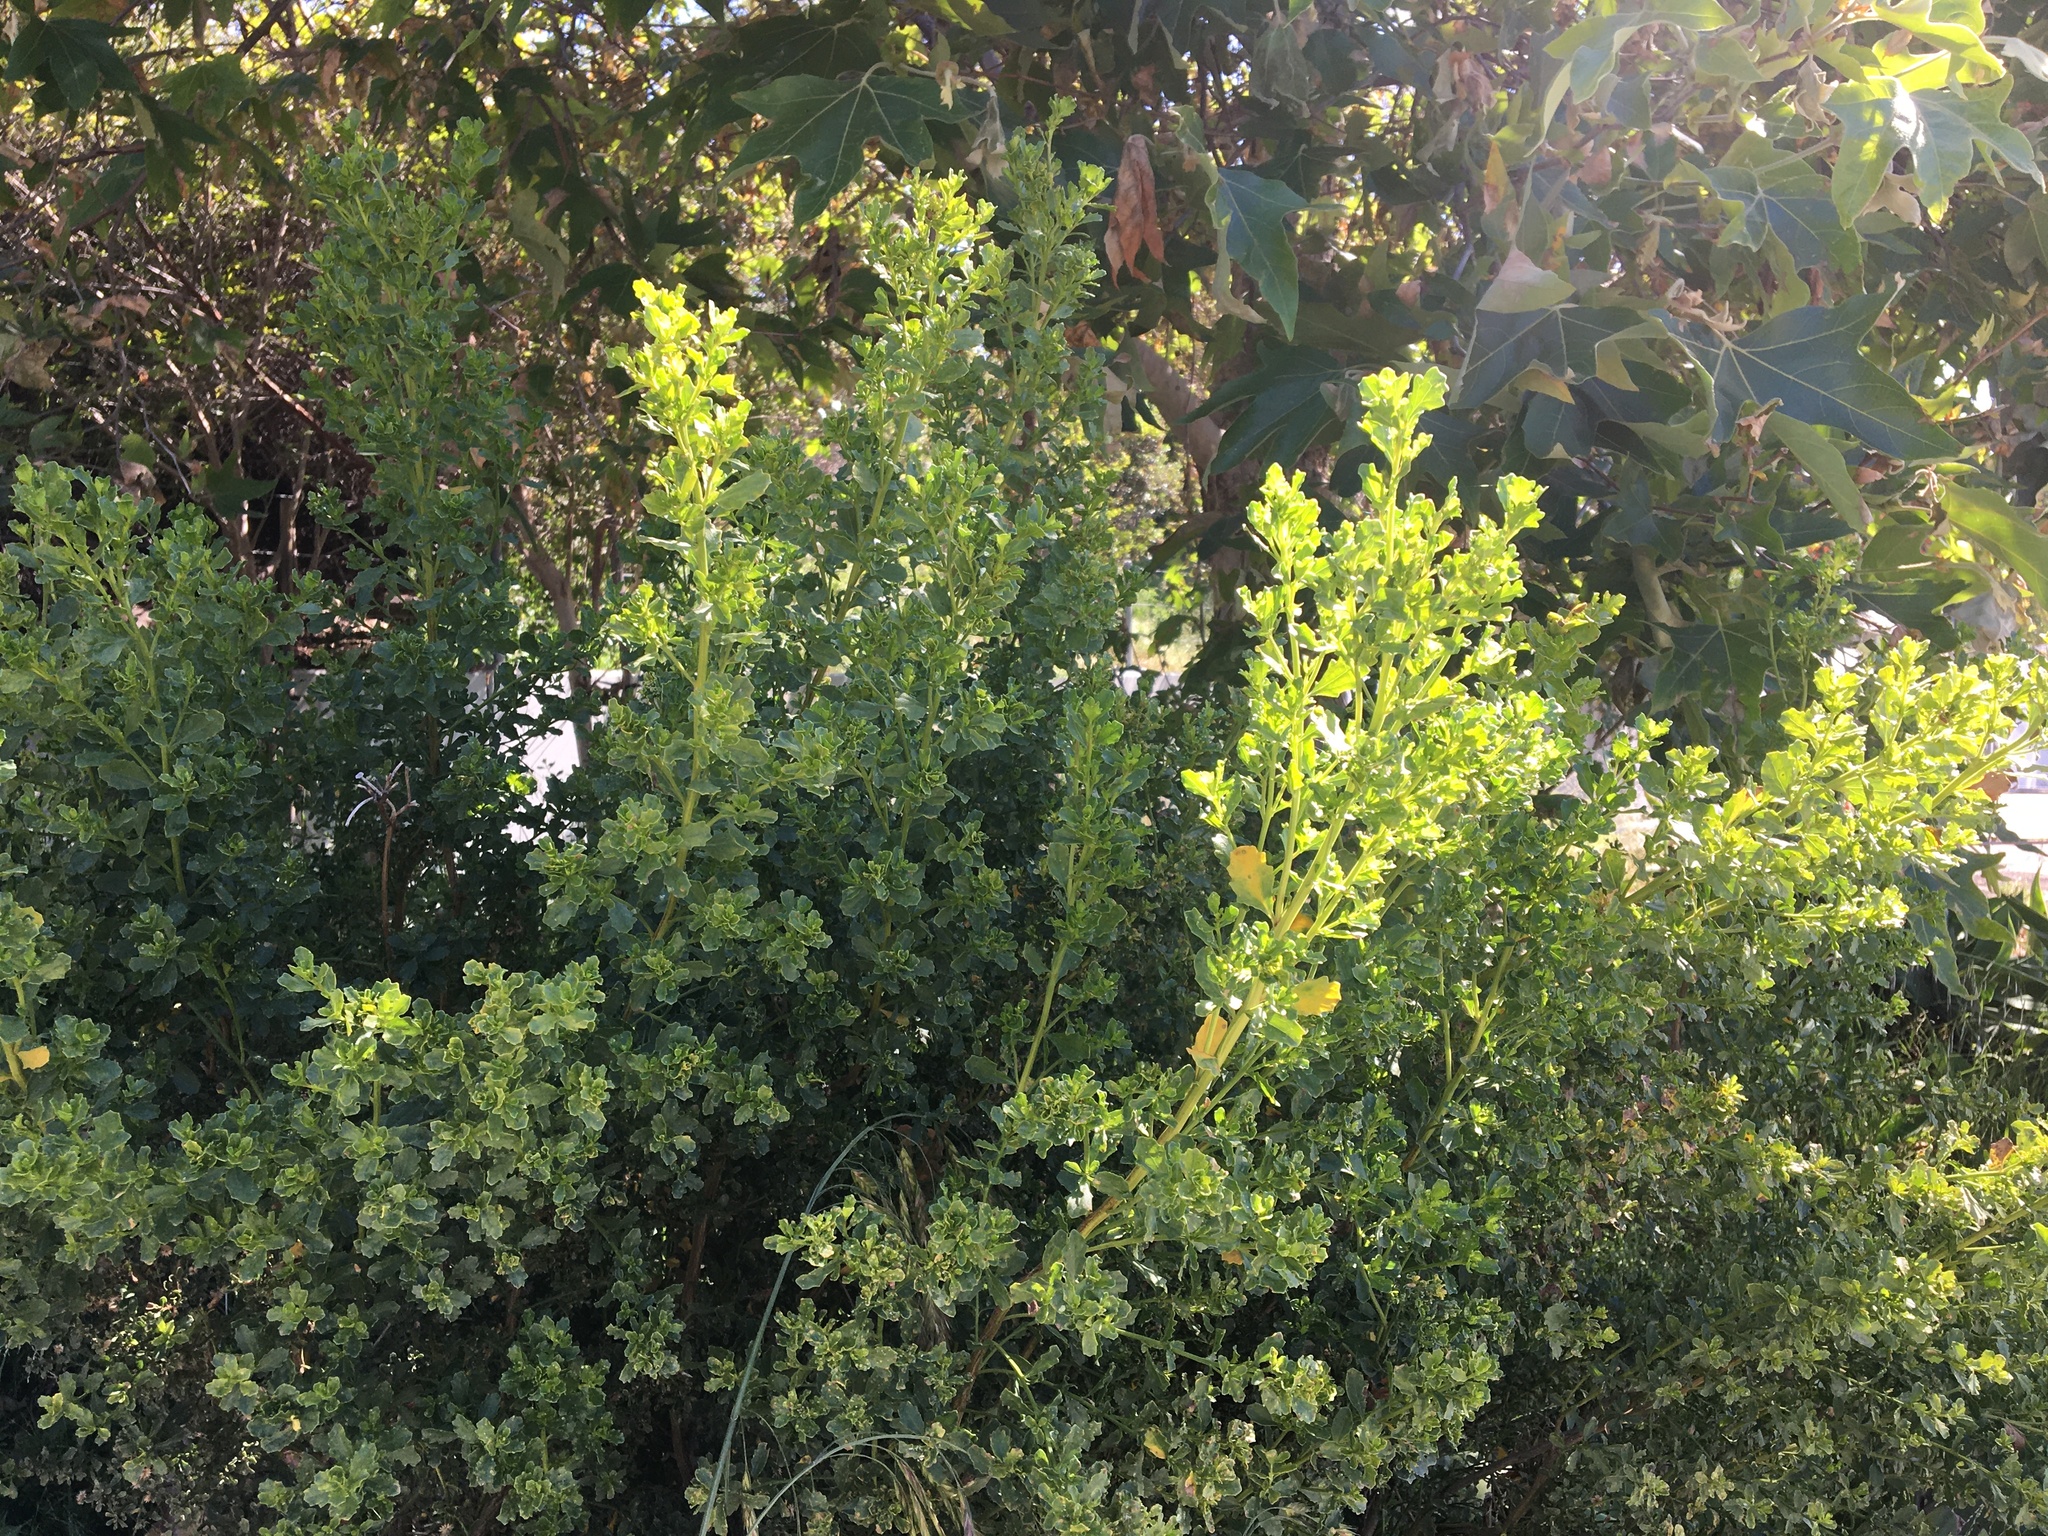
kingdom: Plantae
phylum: Tracheophyta
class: Magnoliopsida
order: Asterales
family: Asteraceae
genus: Baccharis
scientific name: Baccharis pilularis
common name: Coyotebrush
